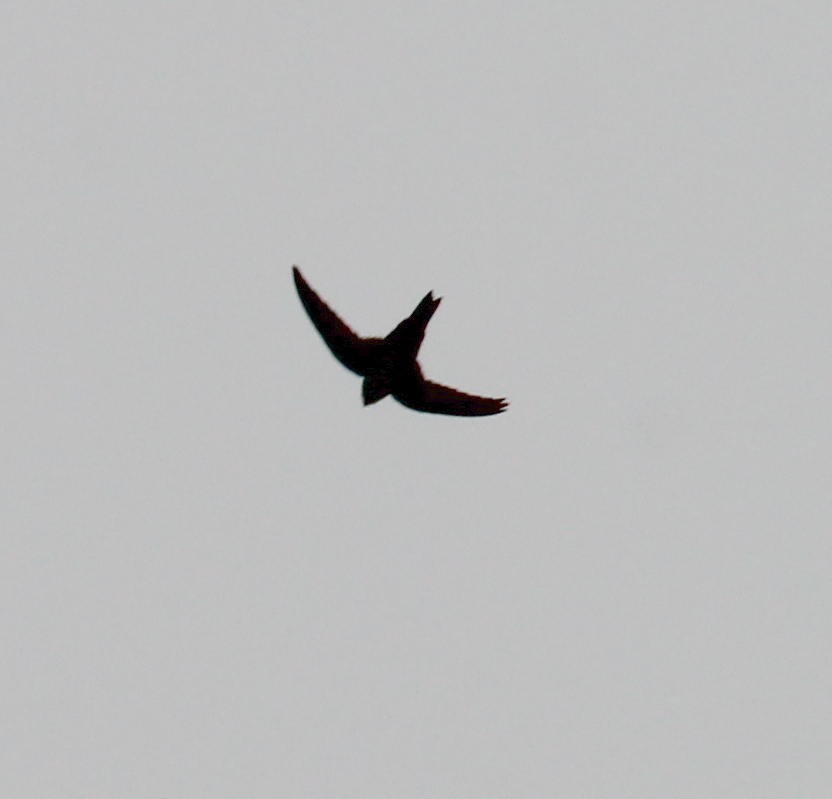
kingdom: Animalia
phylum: Chordata
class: Aves
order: Apodiformes
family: Apodidae
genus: Aeronautes
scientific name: Aeronautes saxatalis
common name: White-throated swift
